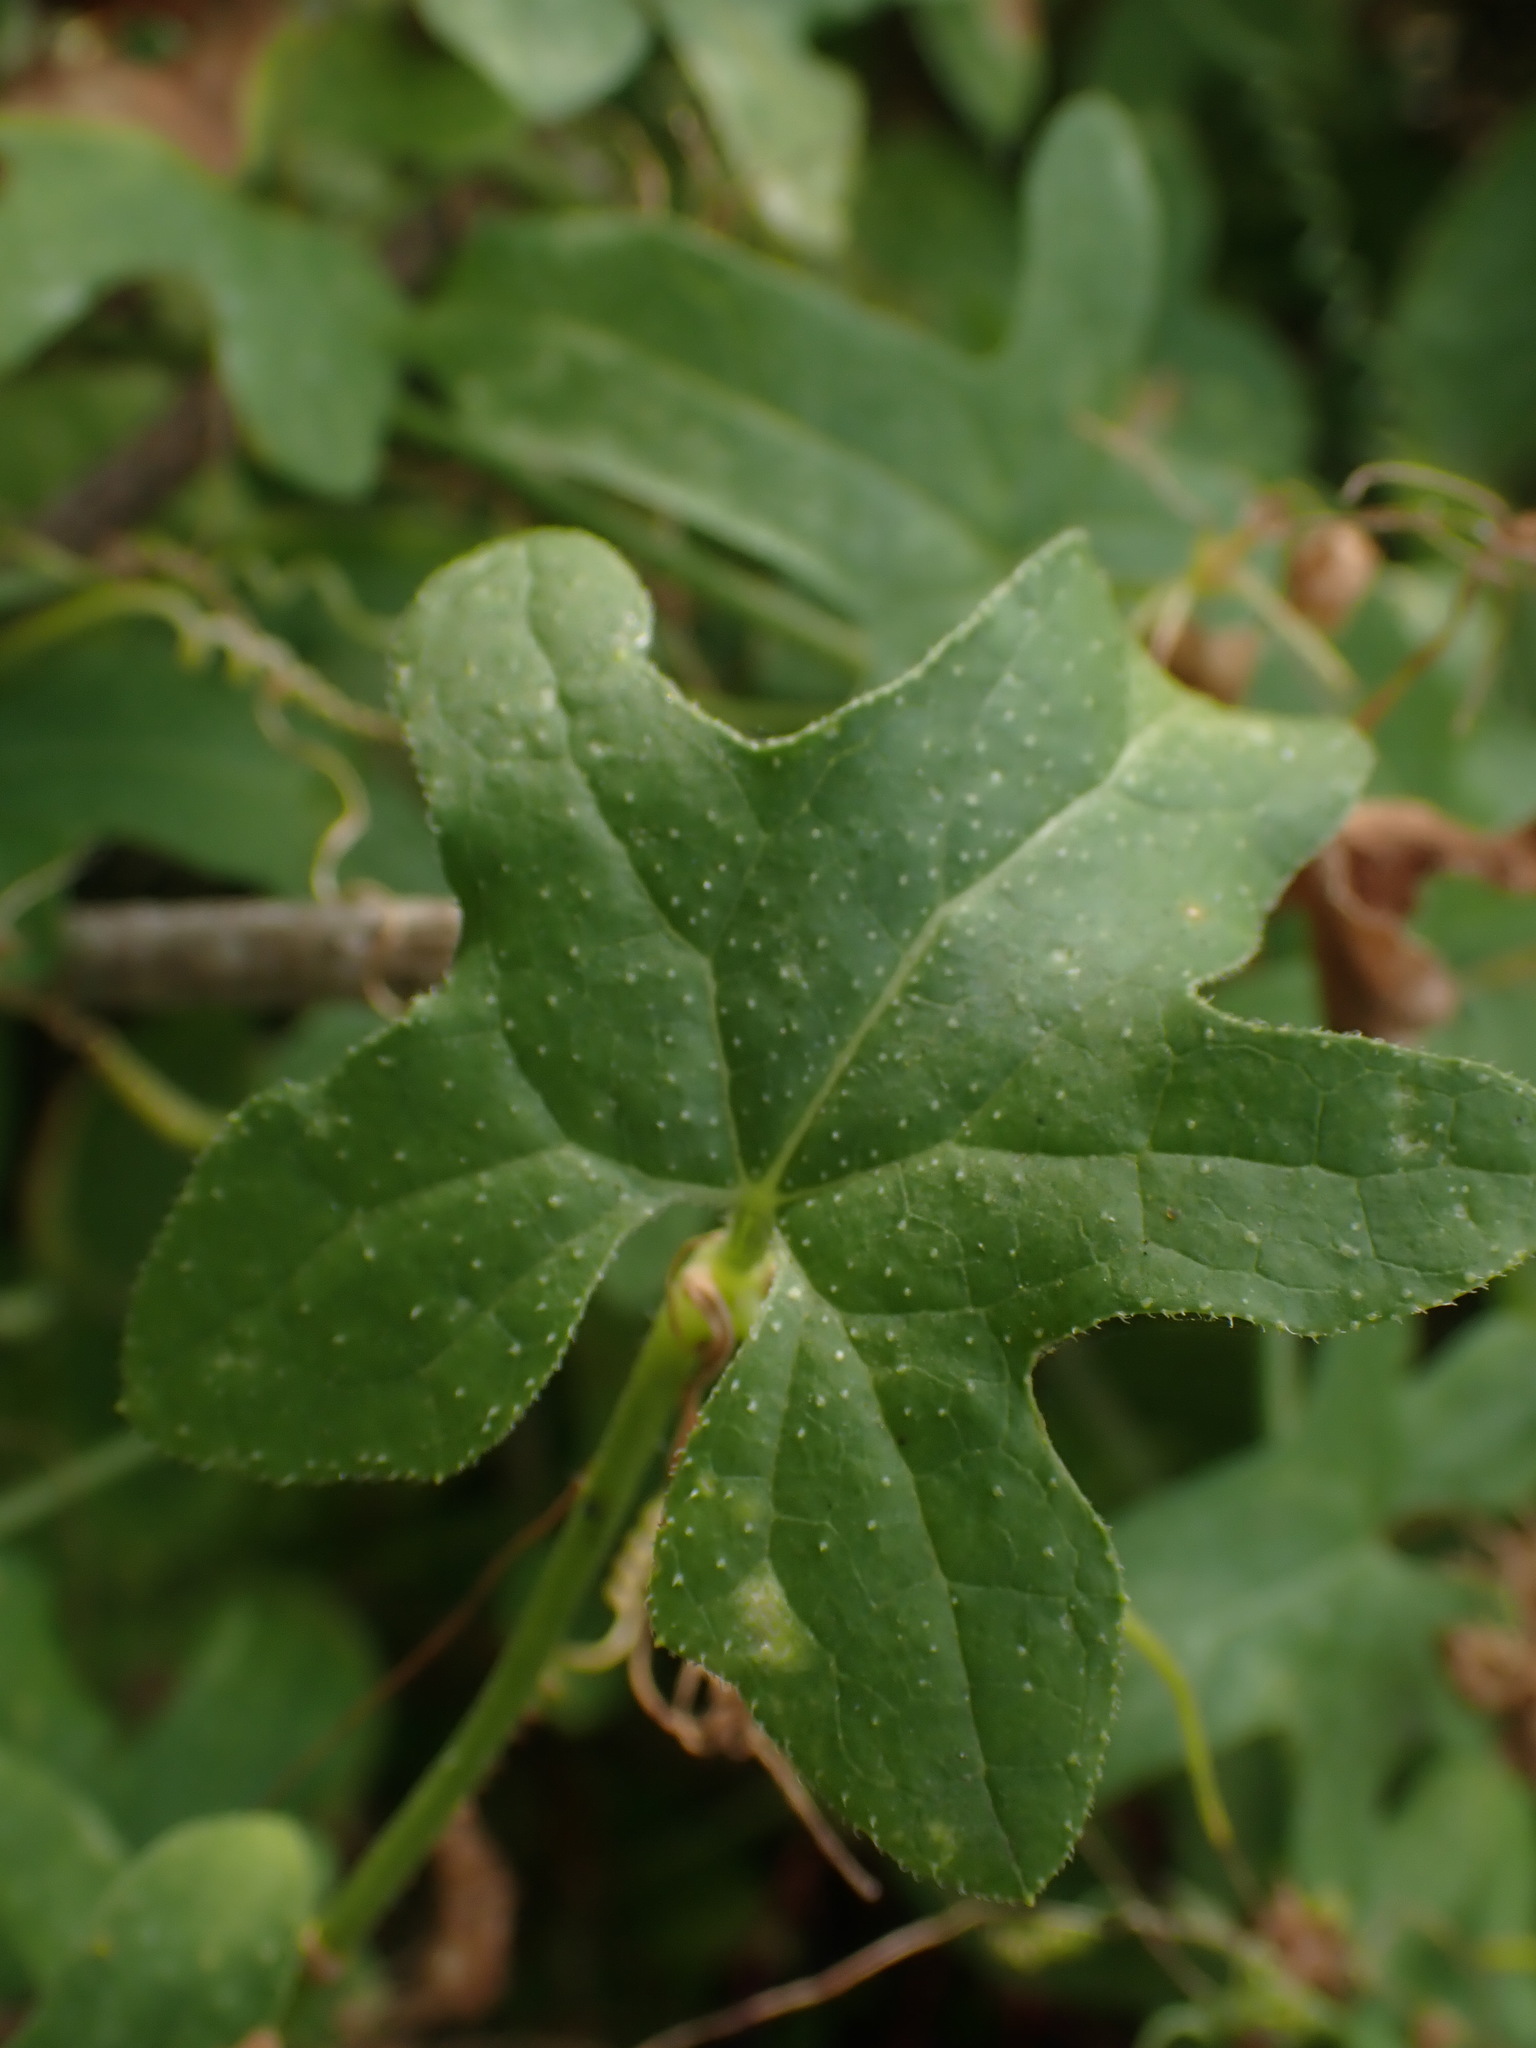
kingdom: Plantae
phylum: Tracheophyta
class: Magnoliopsida
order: Cucurbitales
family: Cucurbitaceae
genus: Bryonia
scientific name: Bryonia cretica
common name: Cretan bryony
